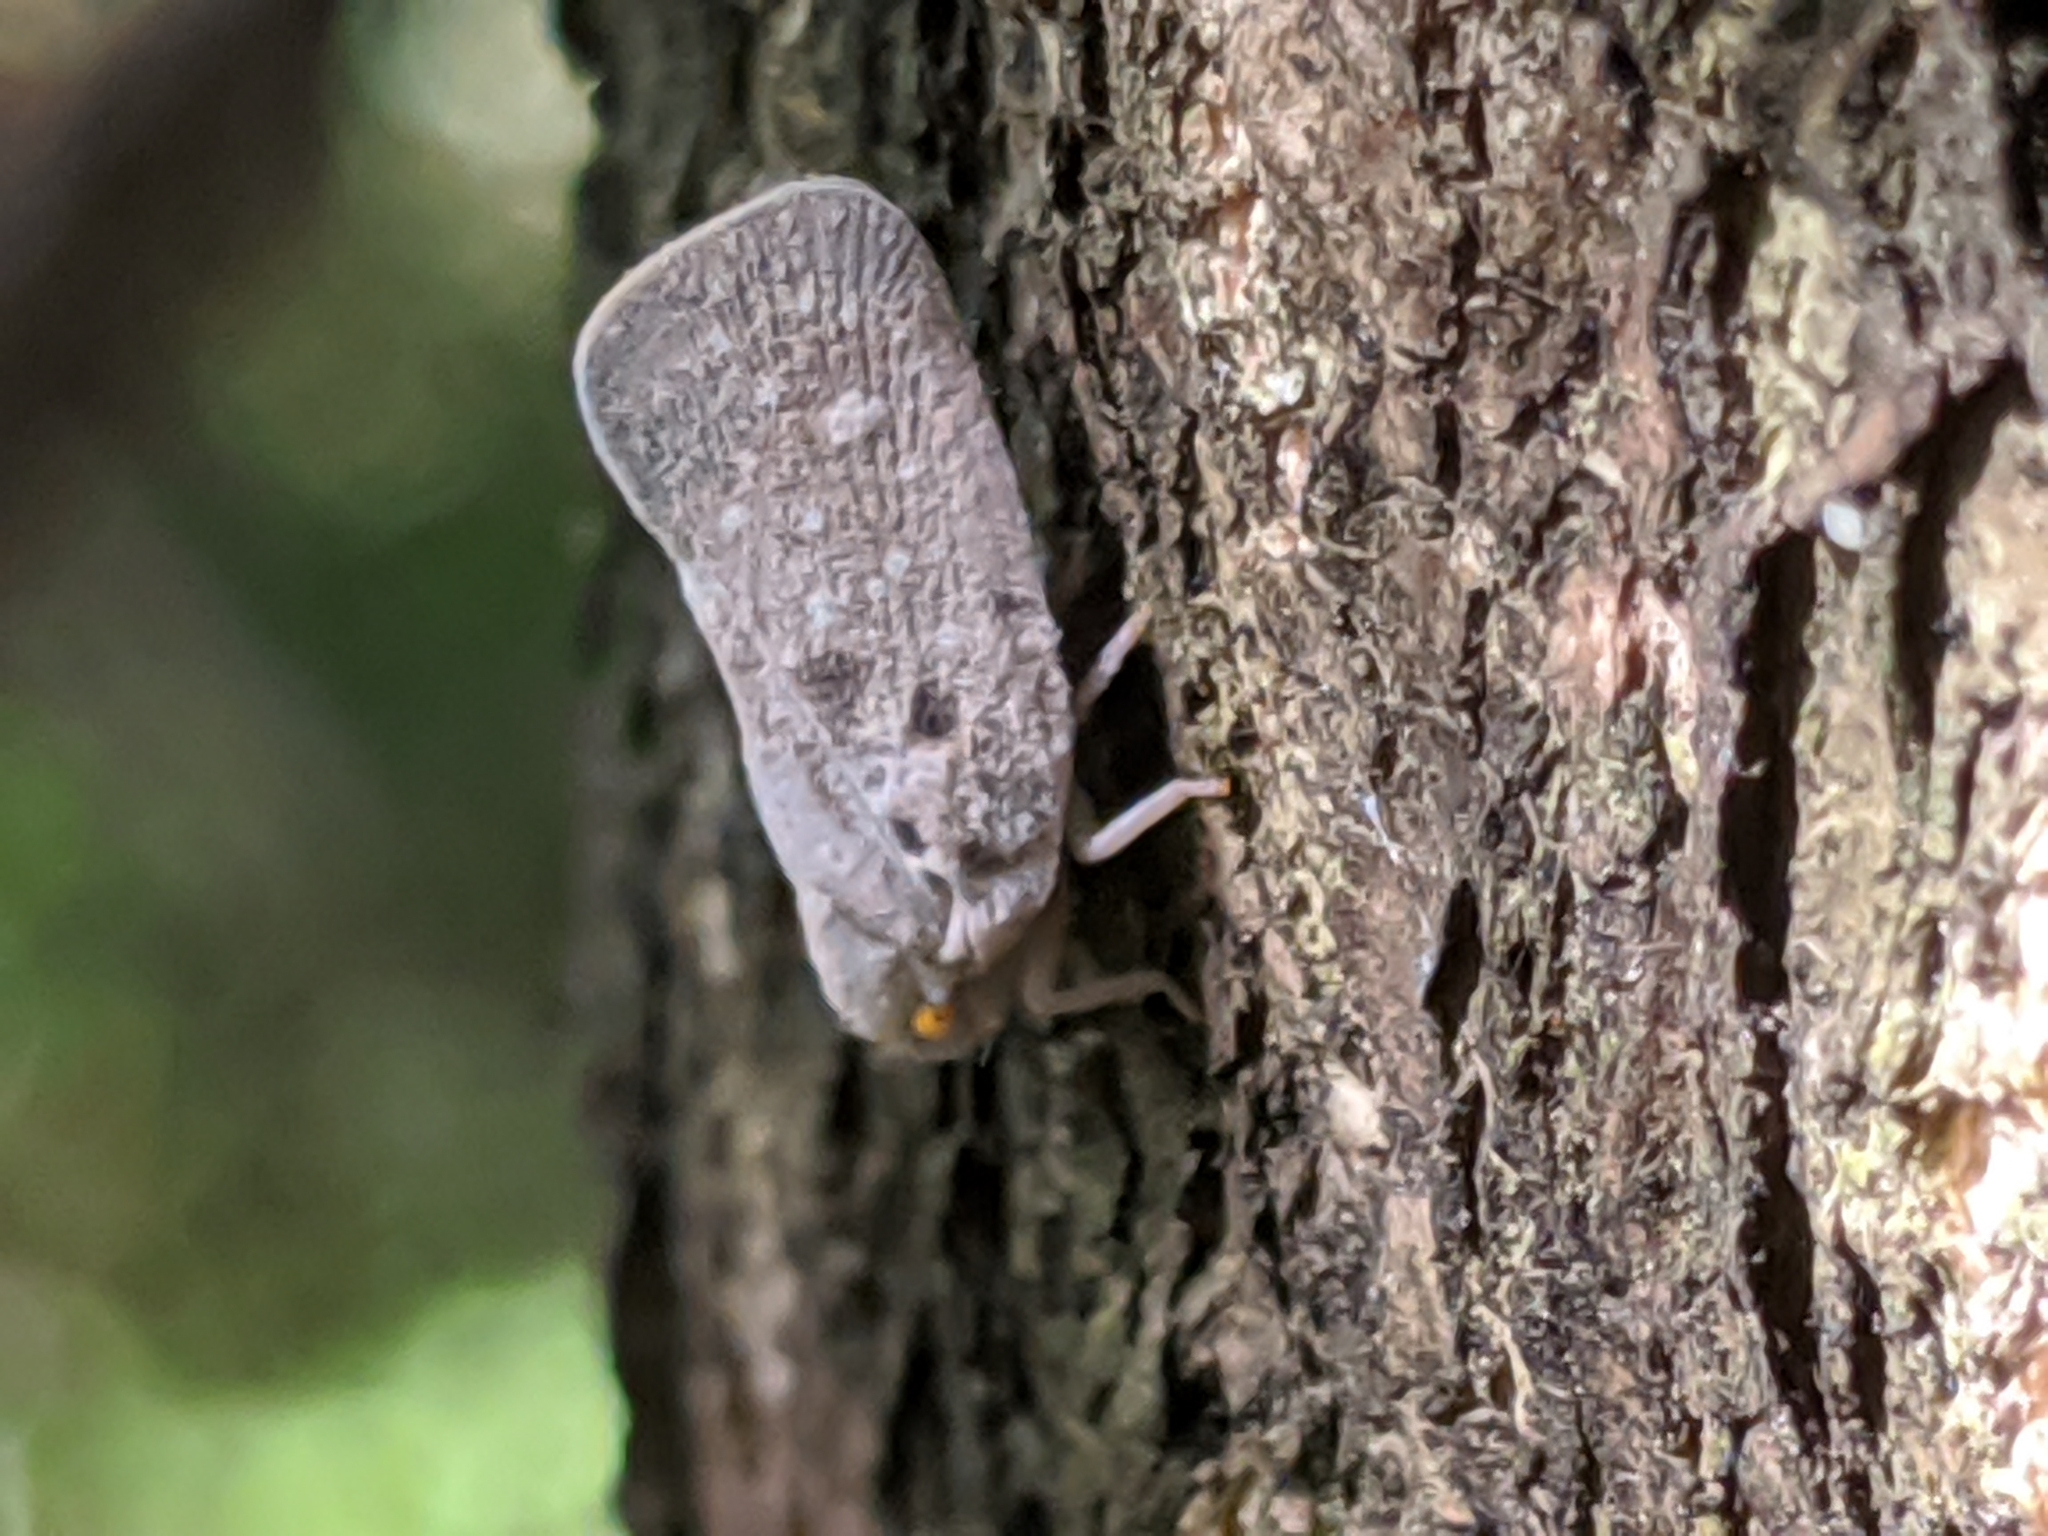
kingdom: Animalia
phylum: Arthropoda
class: Insecta
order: Hemiptera
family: Flatidae
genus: Metcalfa
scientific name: Metcalfa pruinosa
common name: Citrus flatid planthopper
